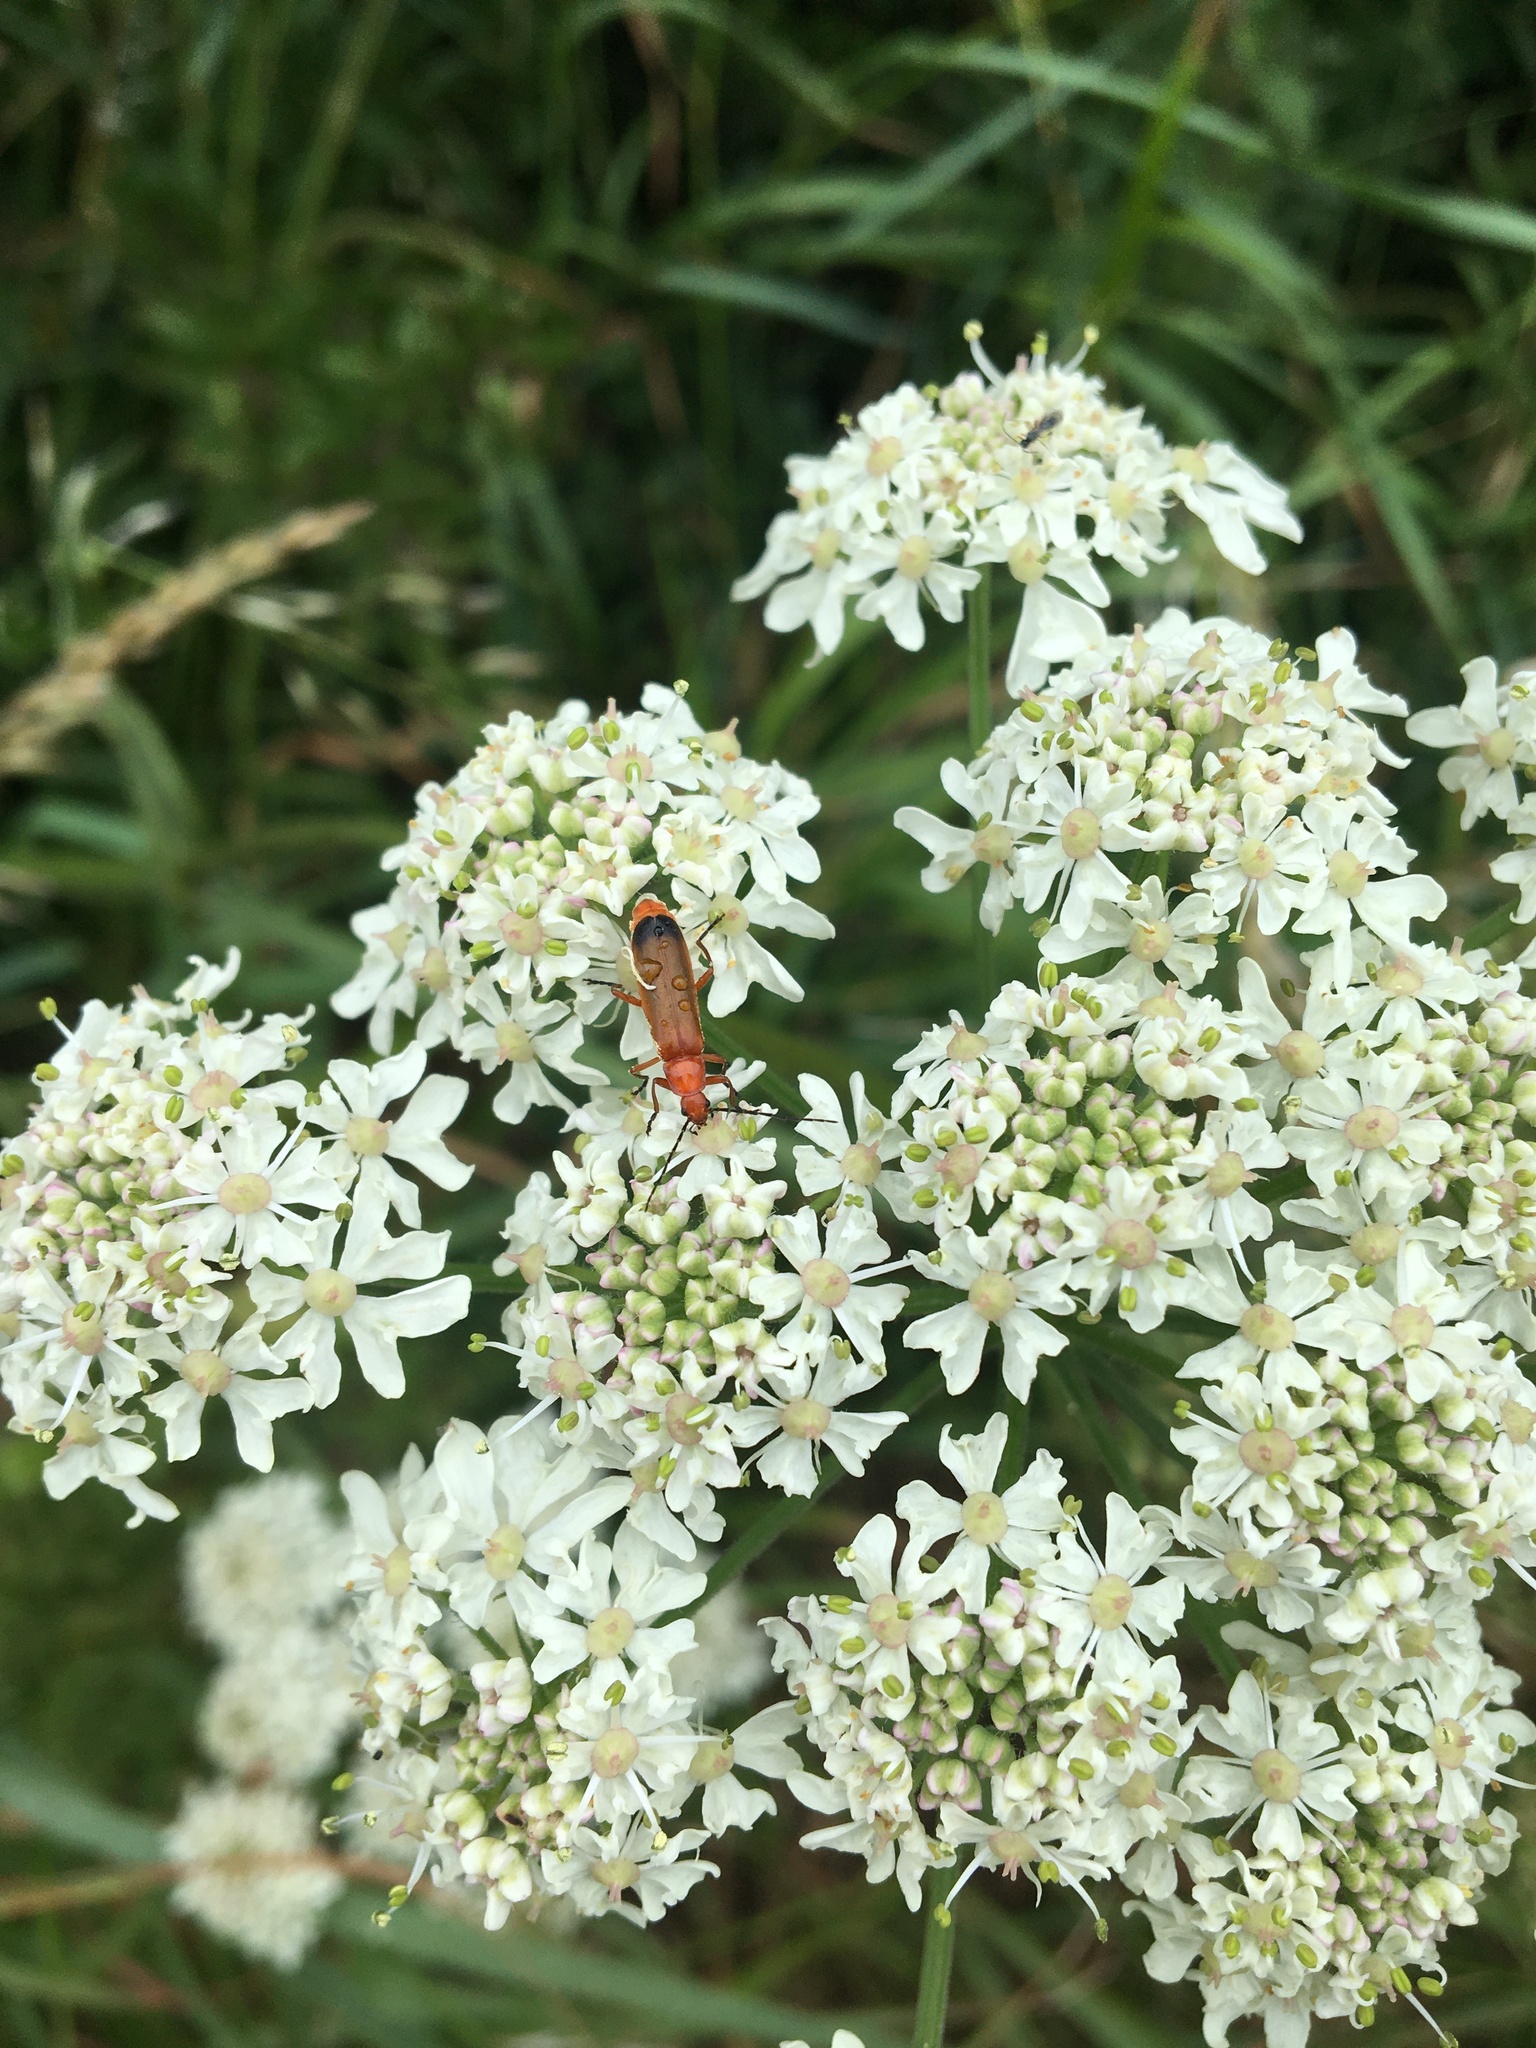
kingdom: Animalia
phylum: Arthropoda
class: Insecta
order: Coleoptera
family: Cantharidae
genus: Rhagonycha
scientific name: Rhagonycha fulva
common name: Common red soldier beetle
